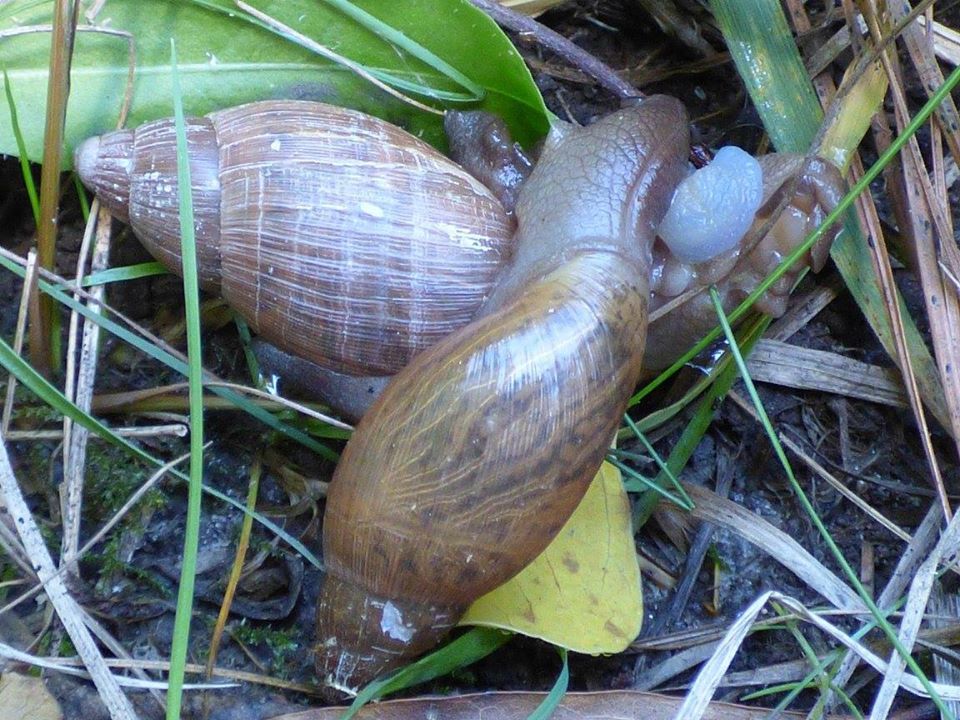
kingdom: Animalia
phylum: Mollusca
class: Gastropoda
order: Stylommatophora
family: Spiraxidae
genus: Euglandina
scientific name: Euglandina rosea
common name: Rosy wolfsnail
